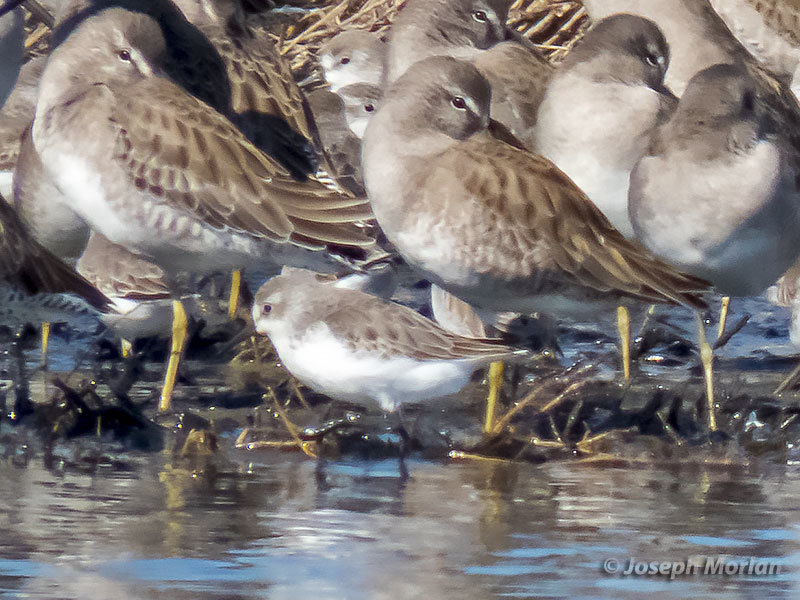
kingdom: Animalia
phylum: Chordata
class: Aves
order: Charadriiformes
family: Scolopacidae
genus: Calidris
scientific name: Calidris mauri
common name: Western sandpiper
